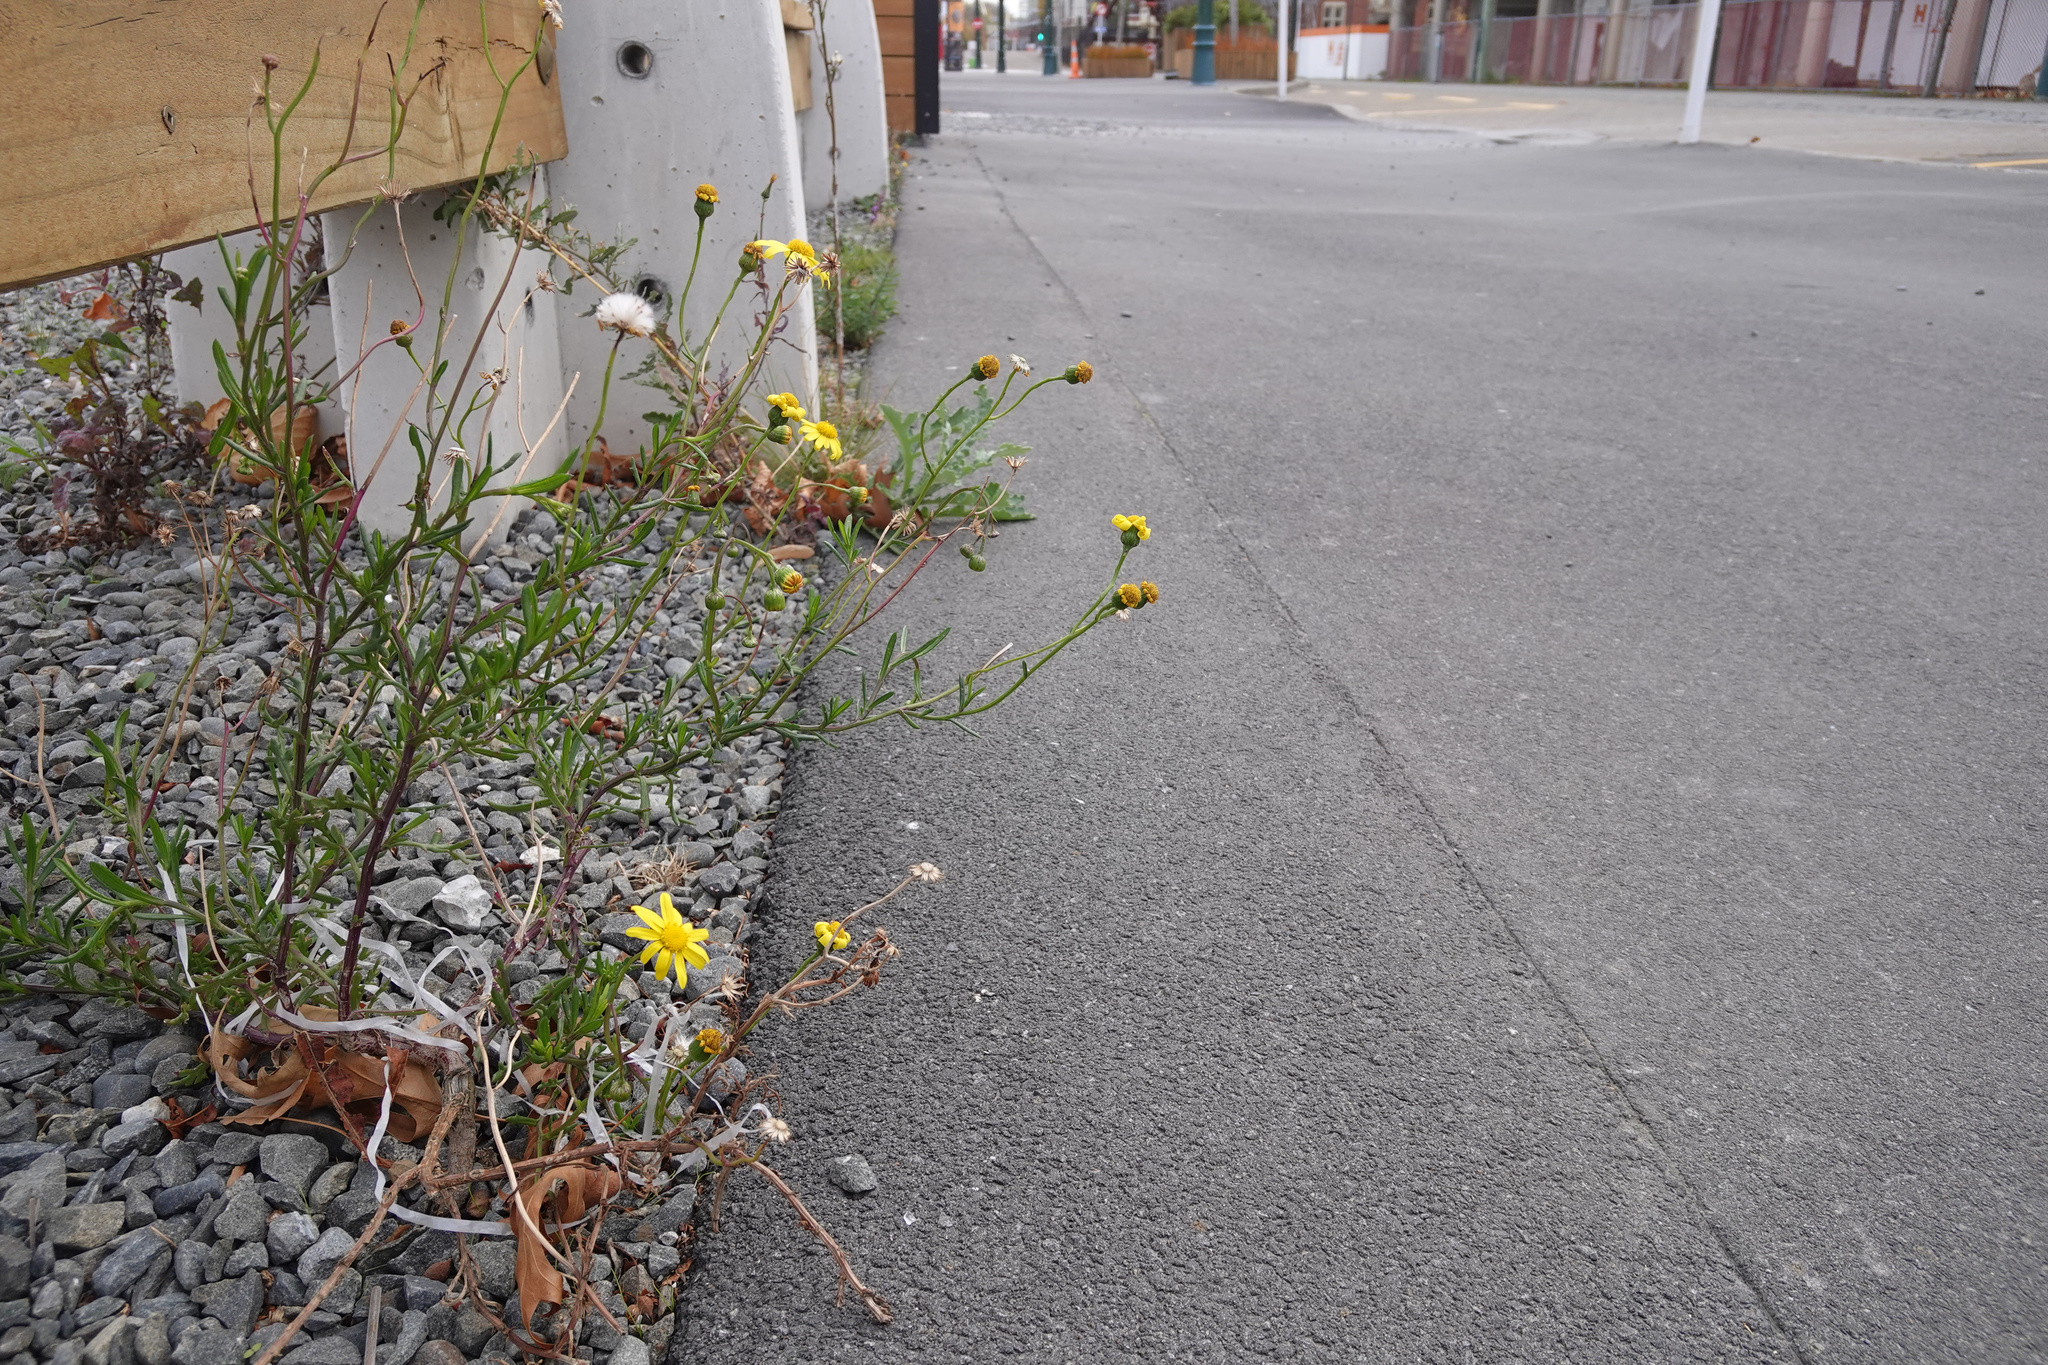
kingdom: Plantae
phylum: Tracheophyta
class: Magnoliopsida
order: Asterales
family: Asteraceae
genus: Senecio
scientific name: Senecio skirrhodon
